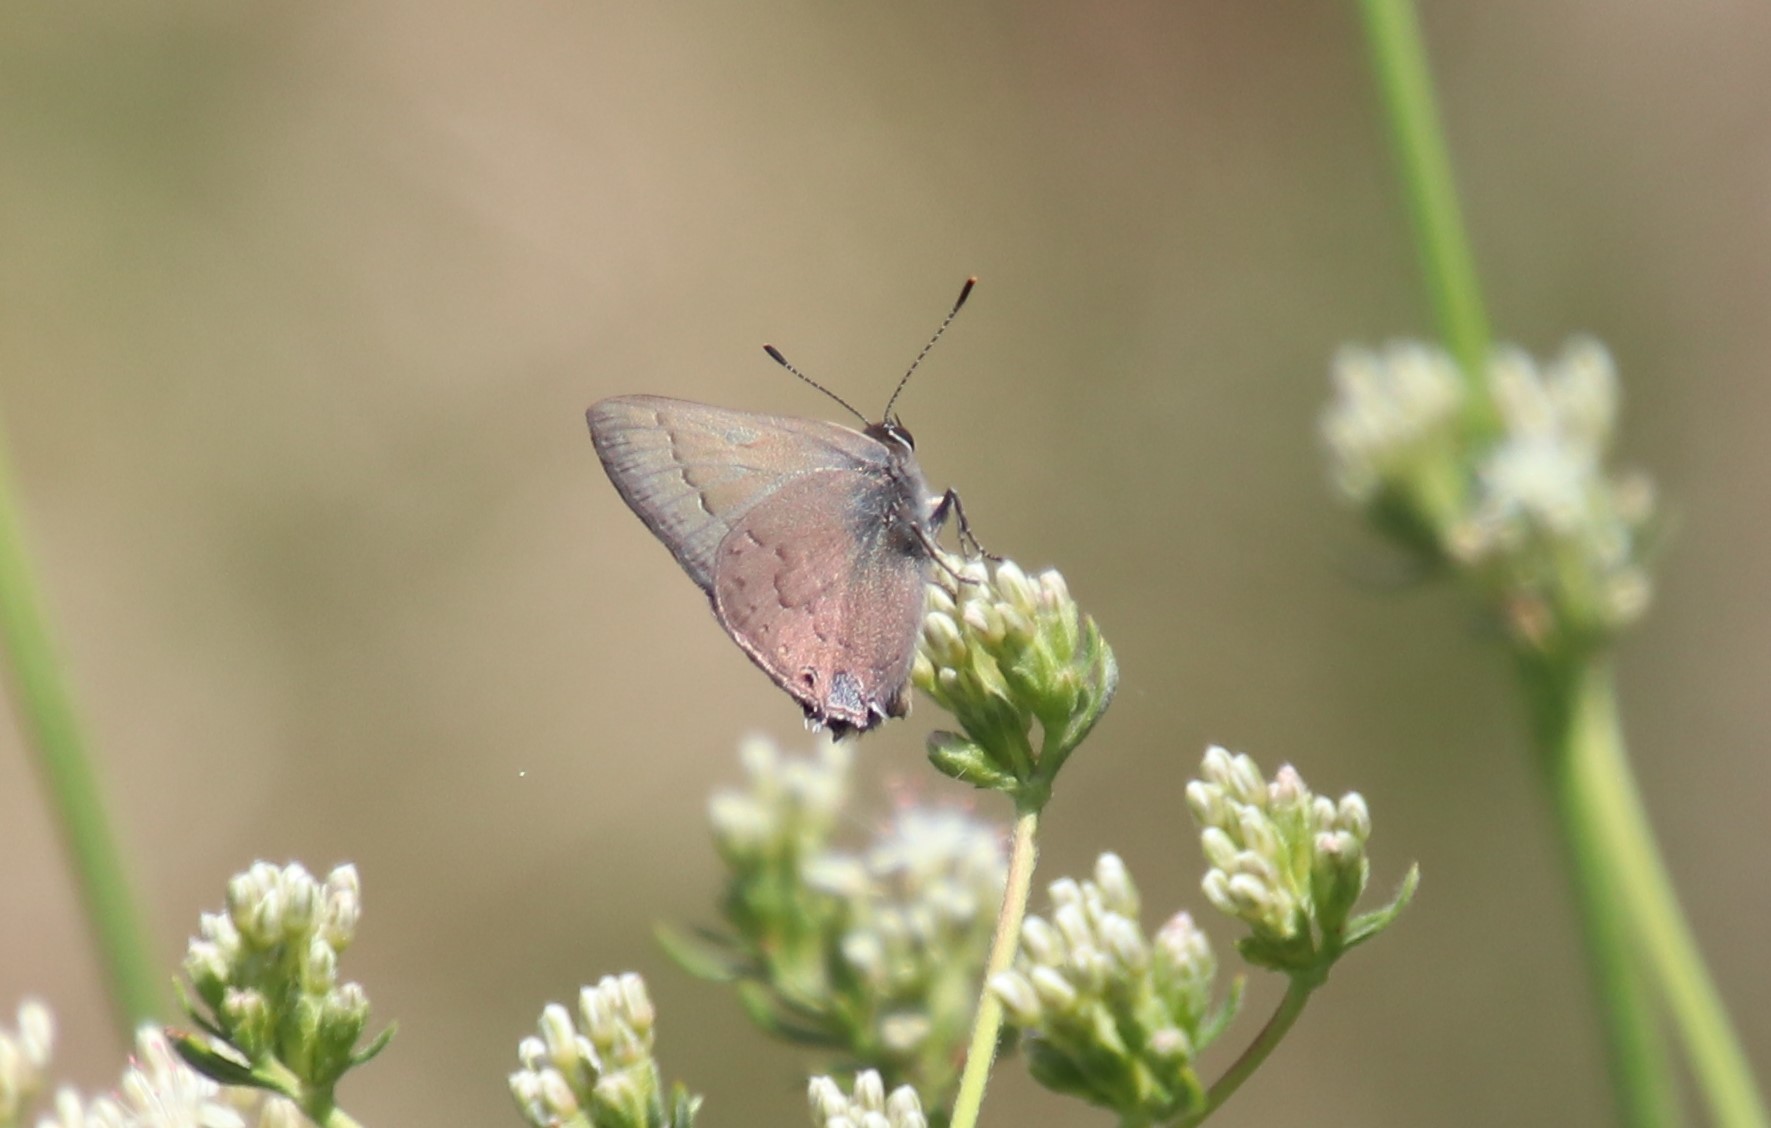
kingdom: Animalia
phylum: Arthropoda
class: Insecta
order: Lepidoptera
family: Lycaenidae
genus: Strymon
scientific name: Strymon saepium
